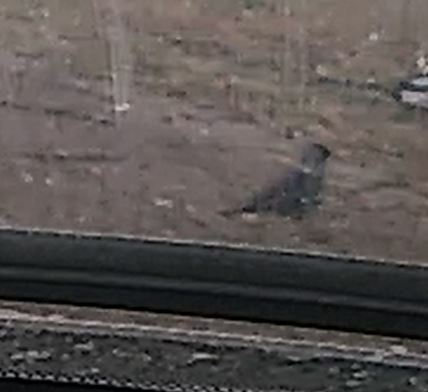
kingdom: Animalia
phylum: Chordata
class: Aves
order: Passeriformes
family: Corvidae
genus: Coloeus
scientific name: Coloeus monedula
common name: Western jackdaw
